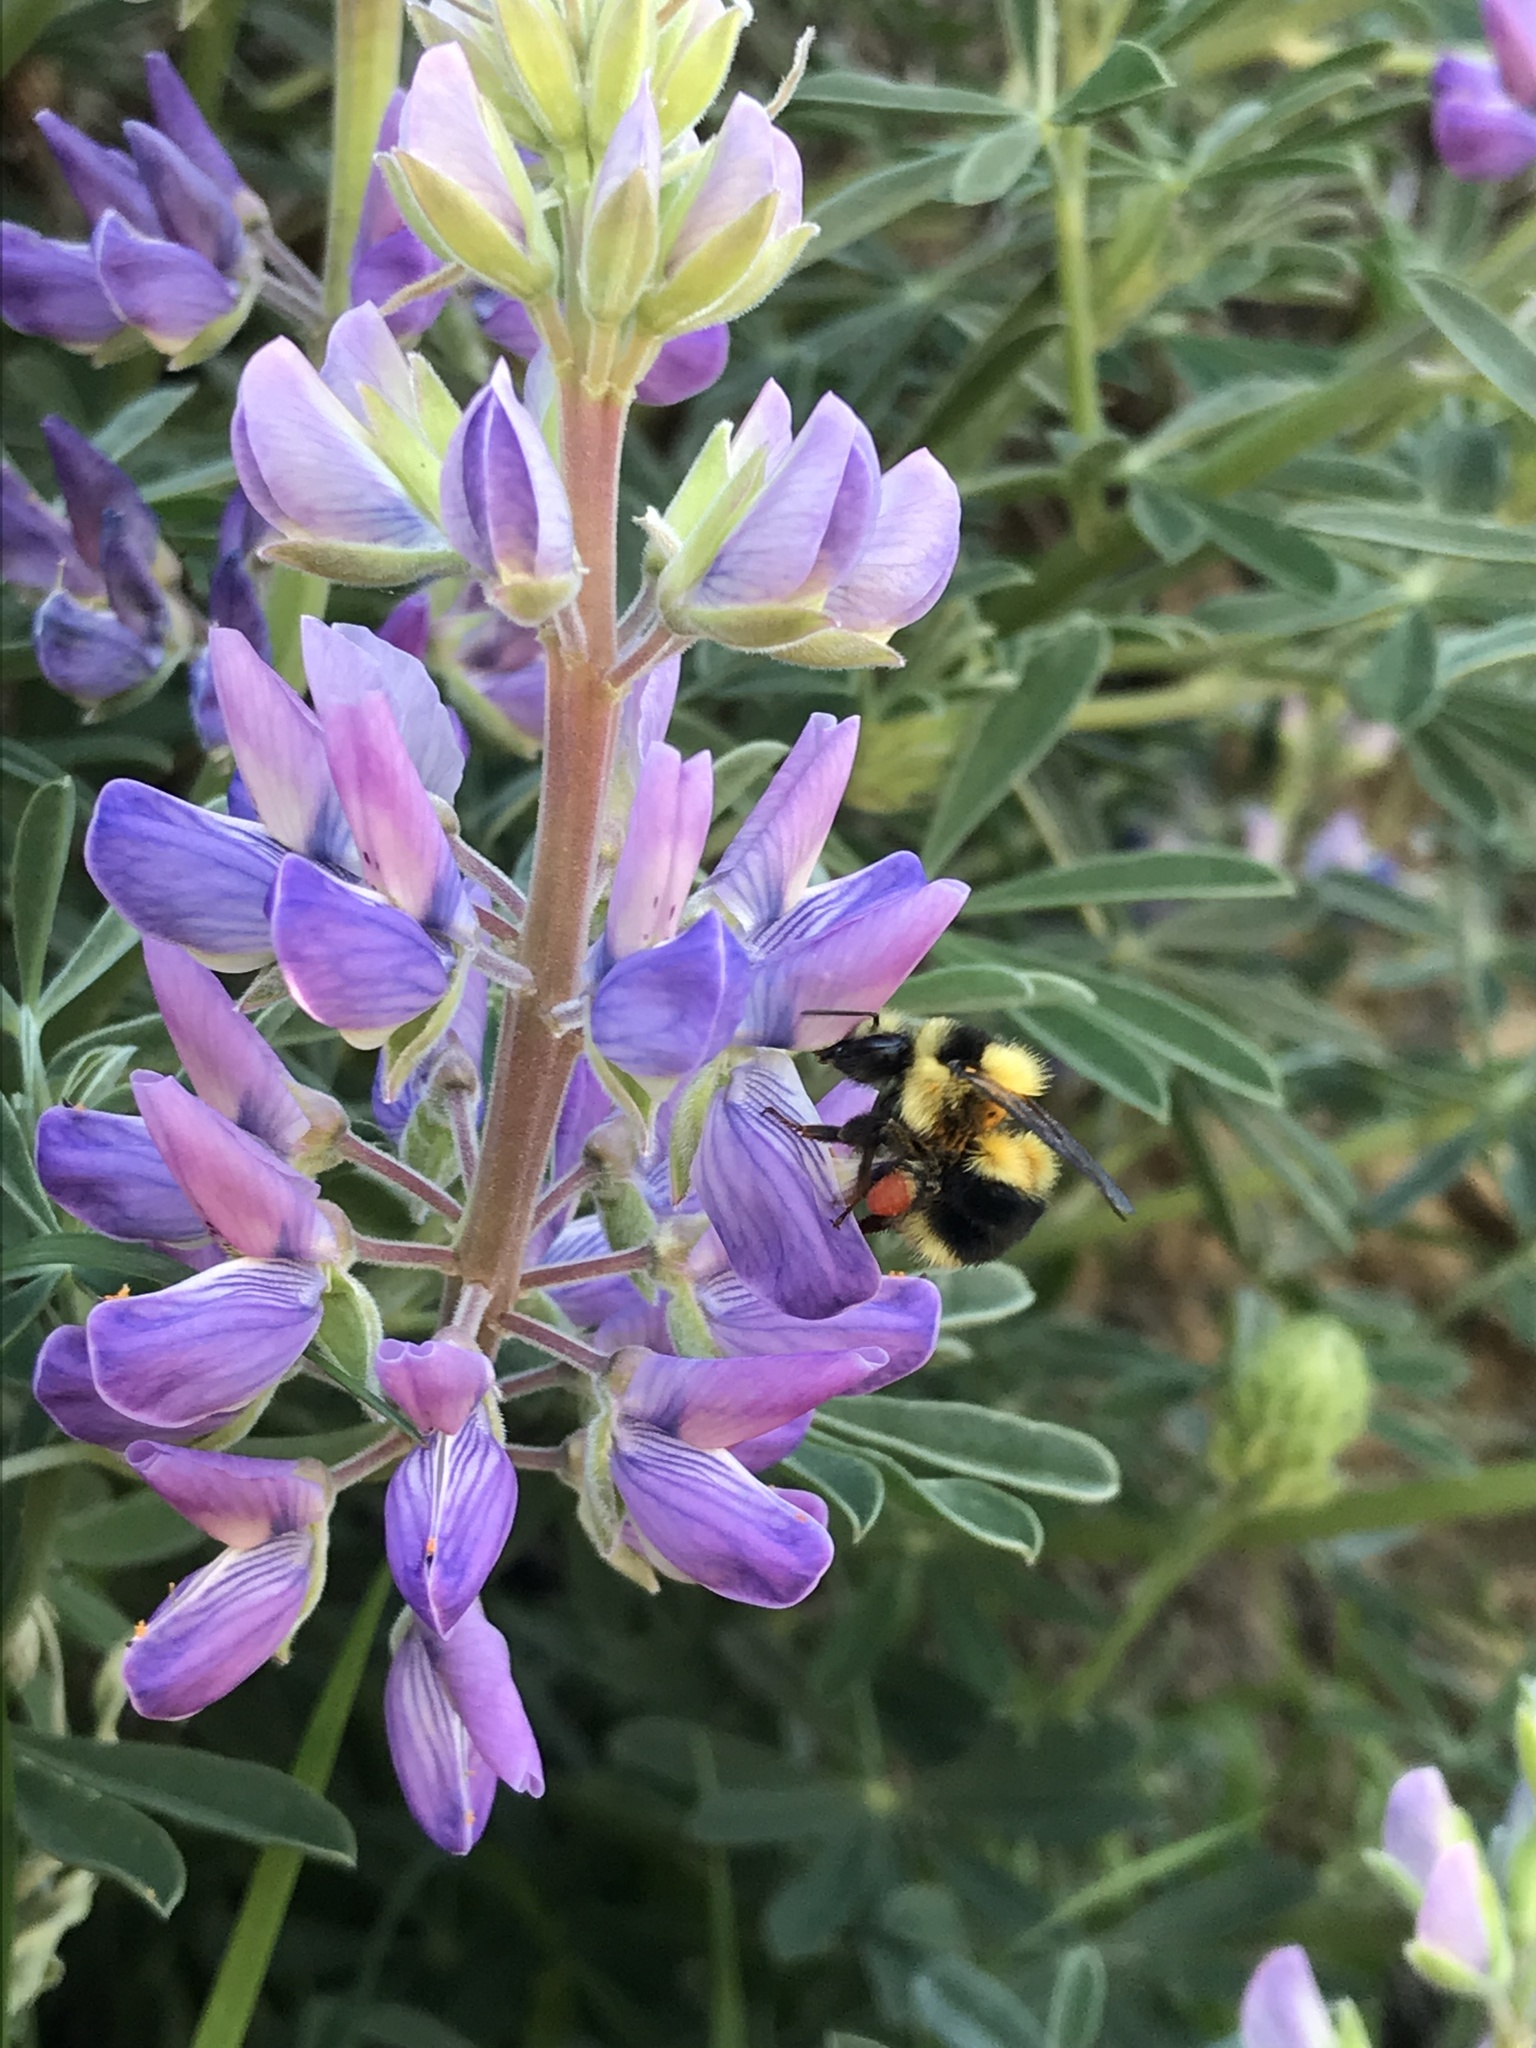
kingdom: Animalia
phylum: Arthropoda
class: Insecta
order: Hymenoptera
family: Apidae
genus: Bombus
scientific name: Bombus melanopygus
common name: Black tail bumble bee
